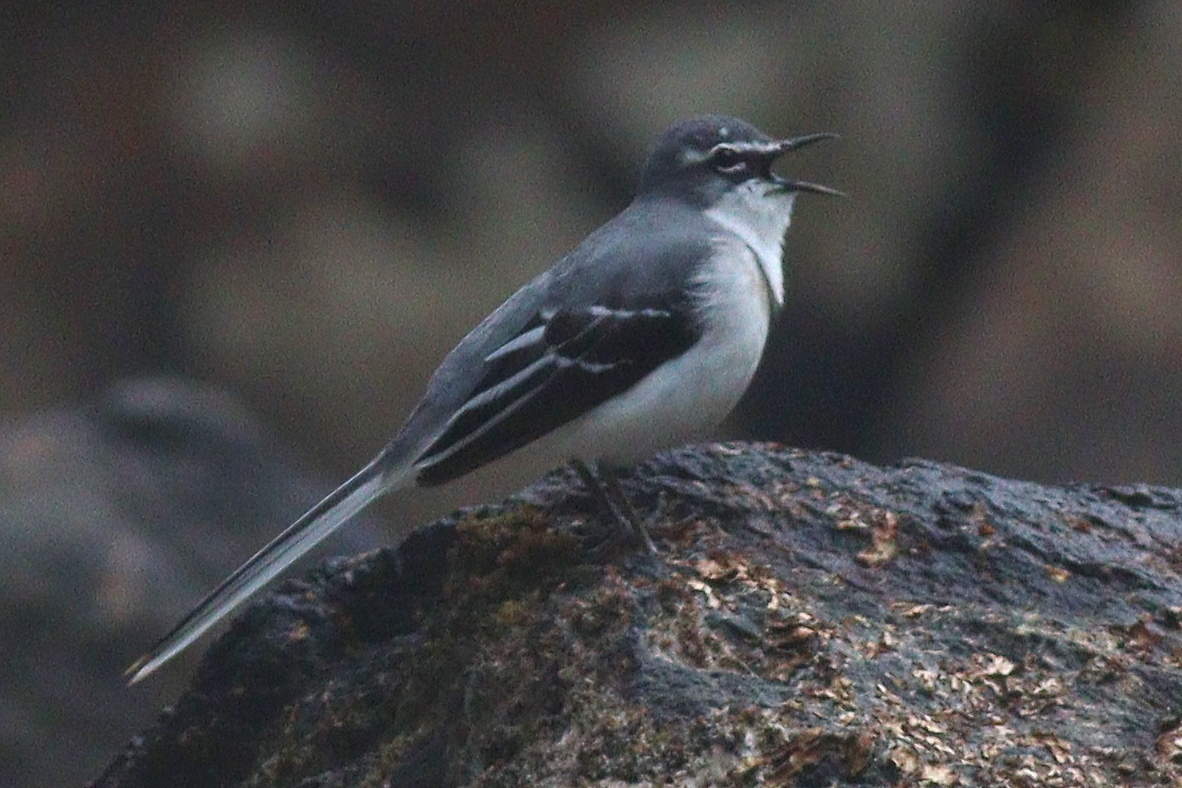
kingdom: Animalia
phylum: Chordata
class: Aves
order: Passeriformes
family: Motacillidae
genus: Motacilla
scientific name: Motacilla clara
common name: Mountain wagtail
